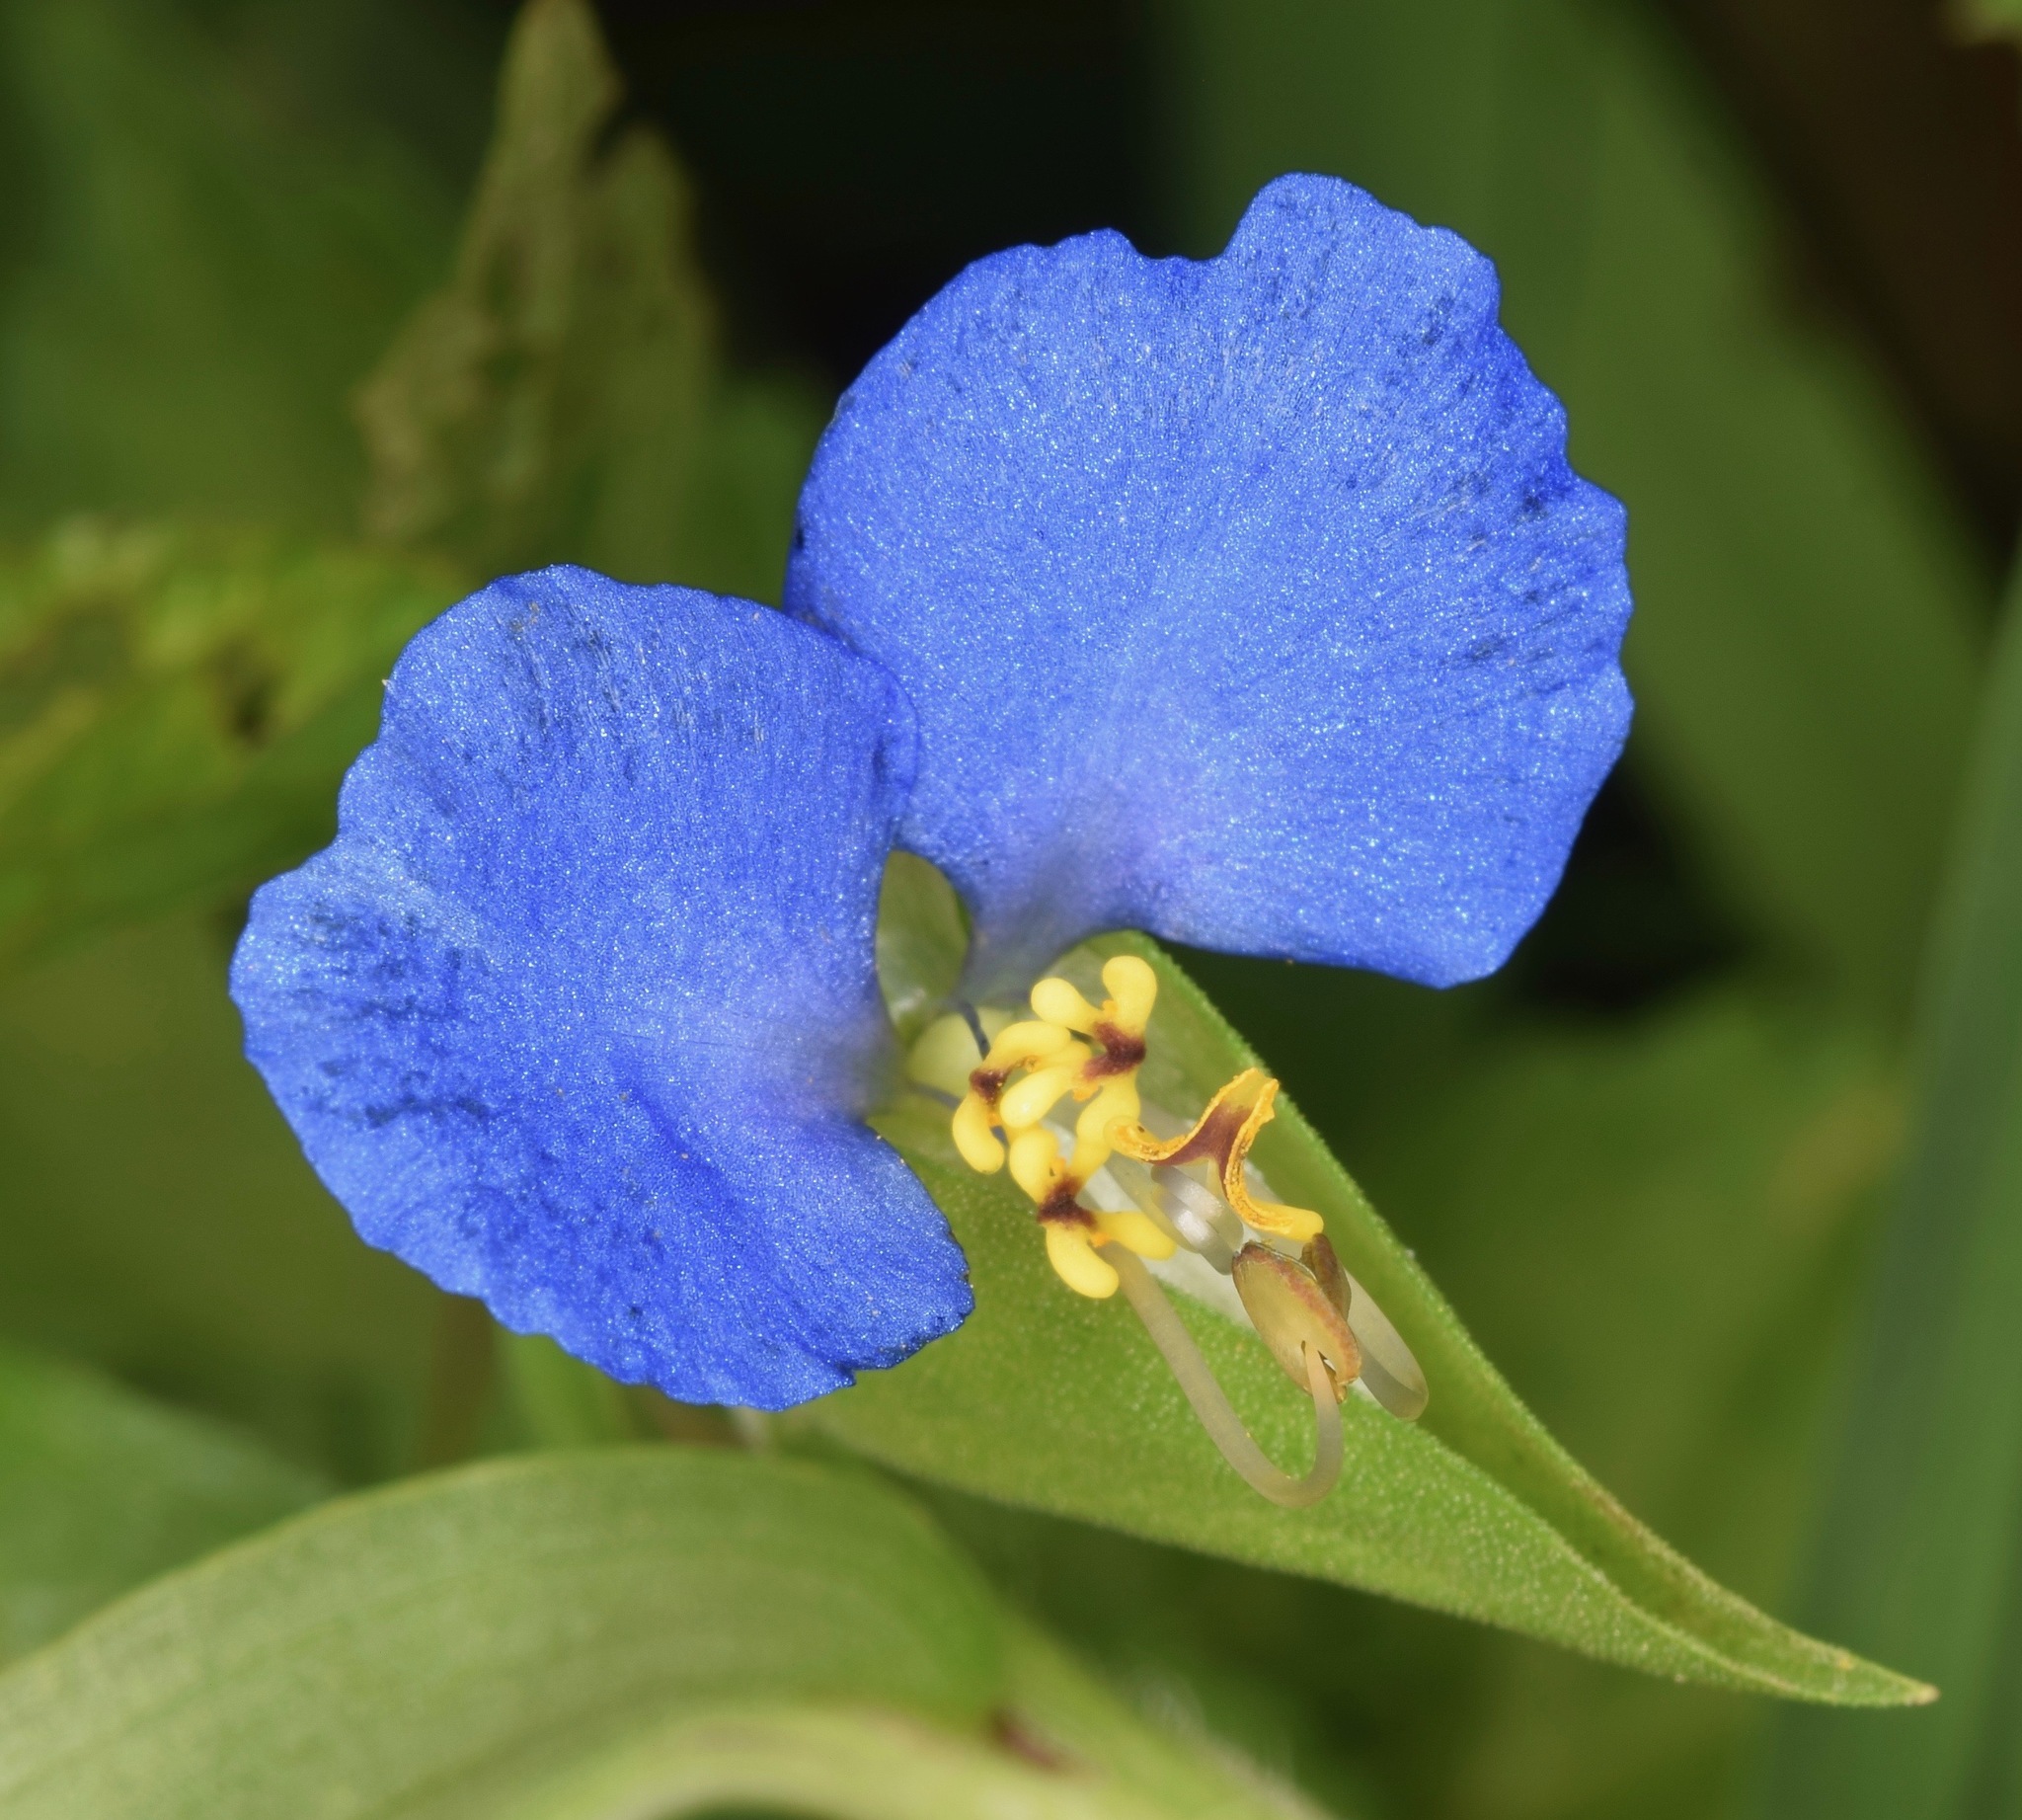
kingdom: Plantae
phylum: Tracheophyta
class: Liliopsida
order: Commelinales
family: Commelinaceae
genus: Commelina
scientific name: Commelina communis
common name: Asiatic dayflower
